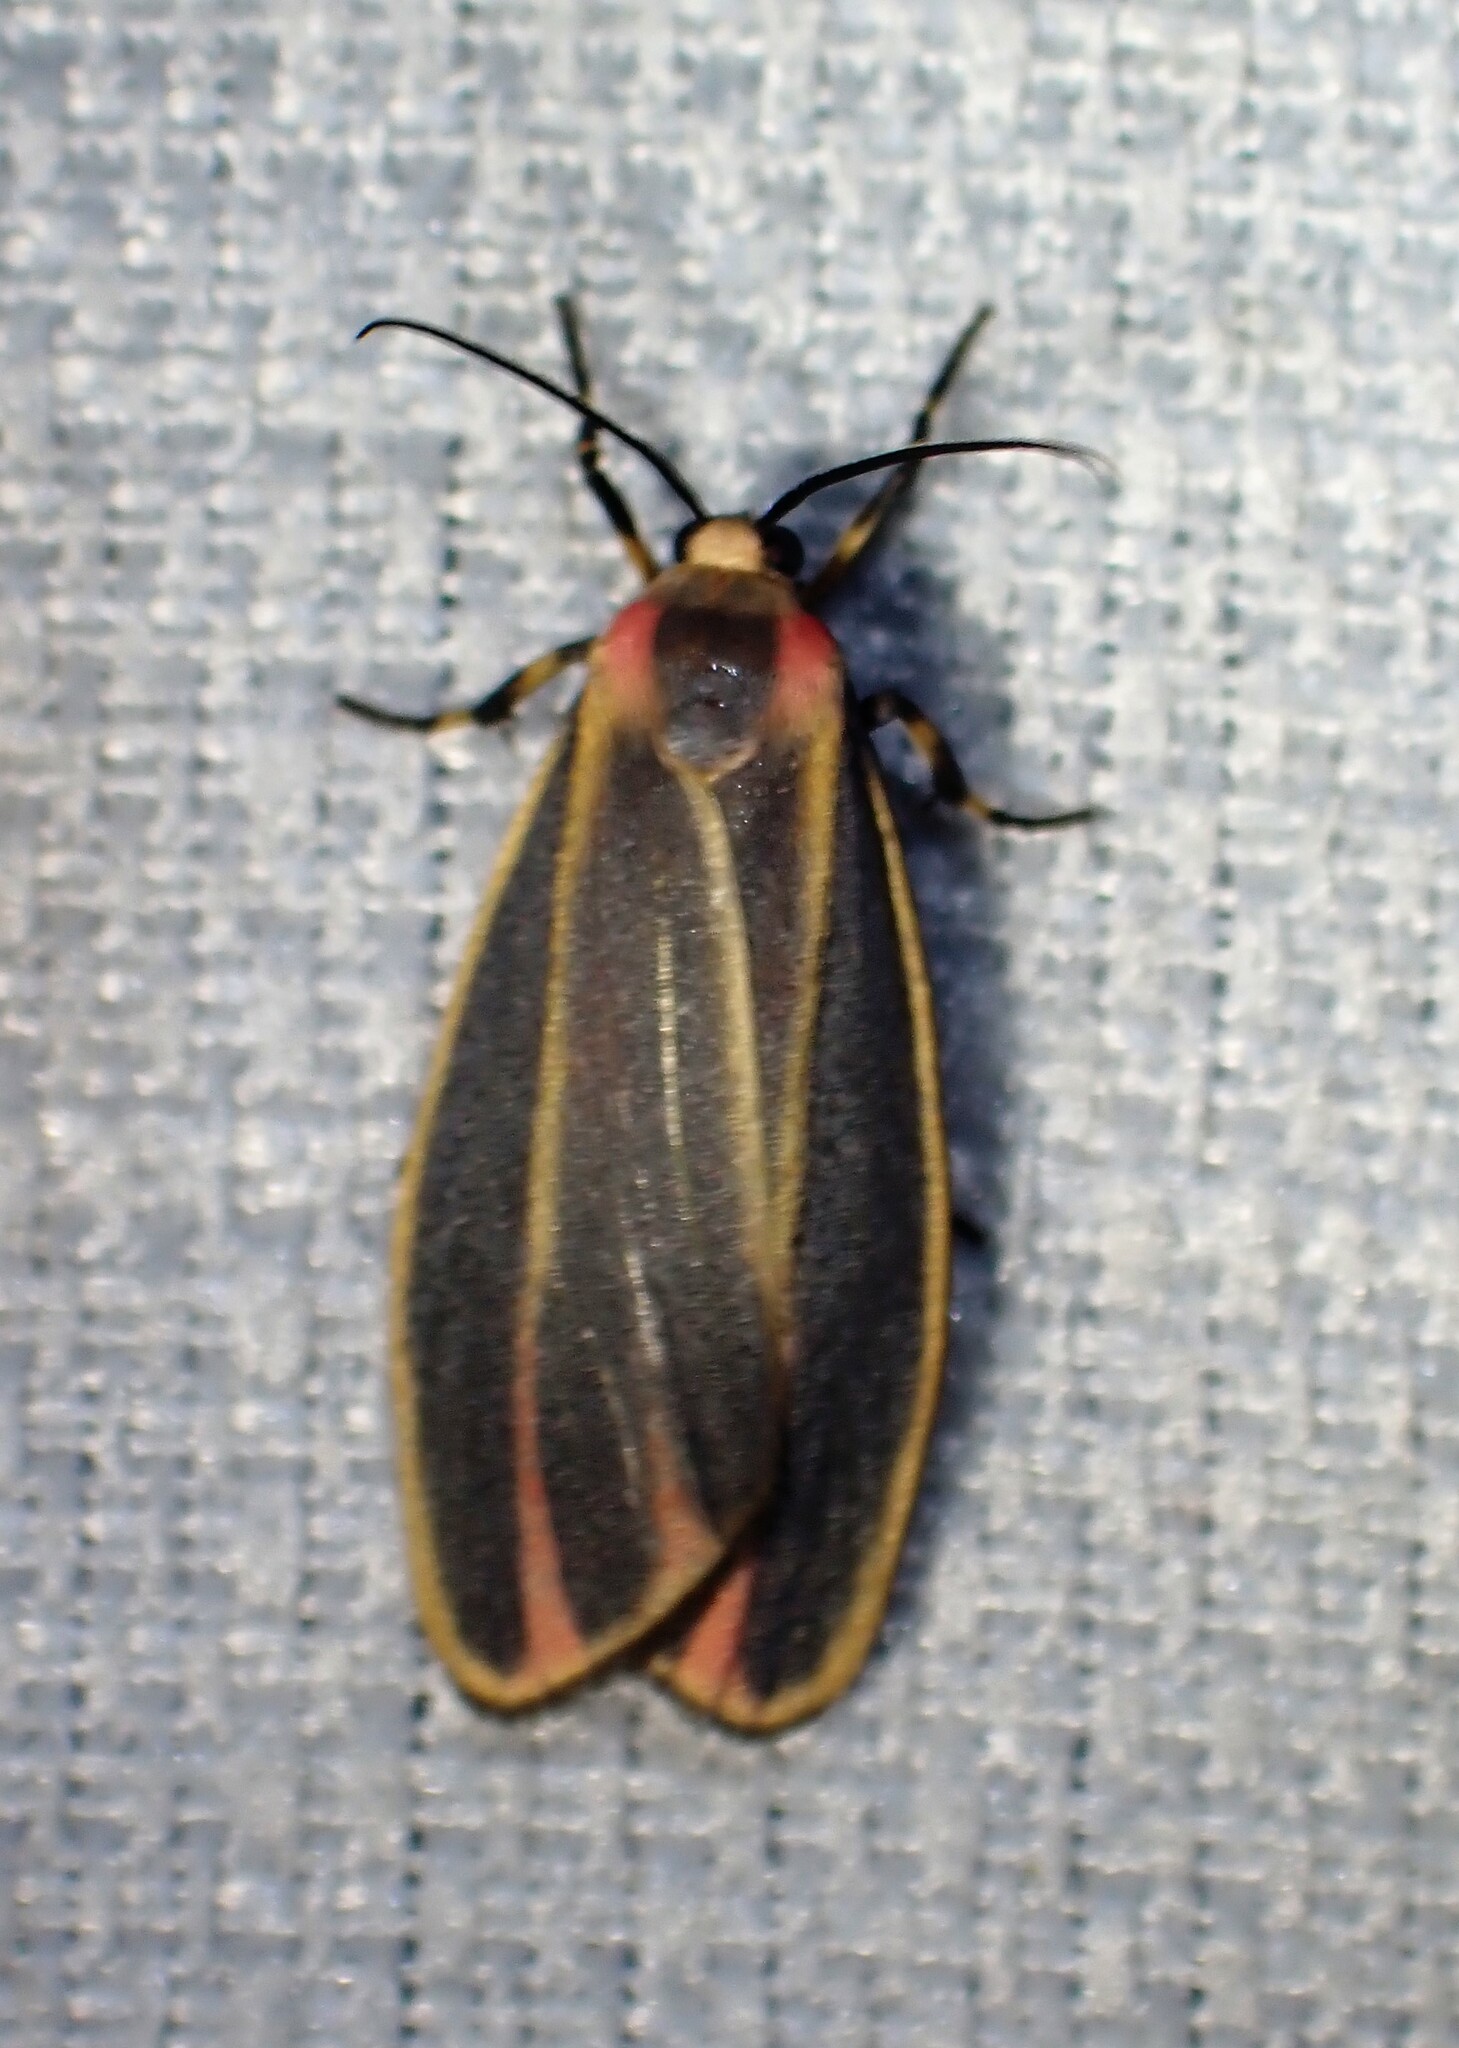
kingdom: Animalia
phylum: Arthropoda
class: Insecta
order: Lepidoptera
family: Erebidae
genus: Hypoprepia
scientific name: Hypoprepia fucosa
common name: Painted lichen moth
